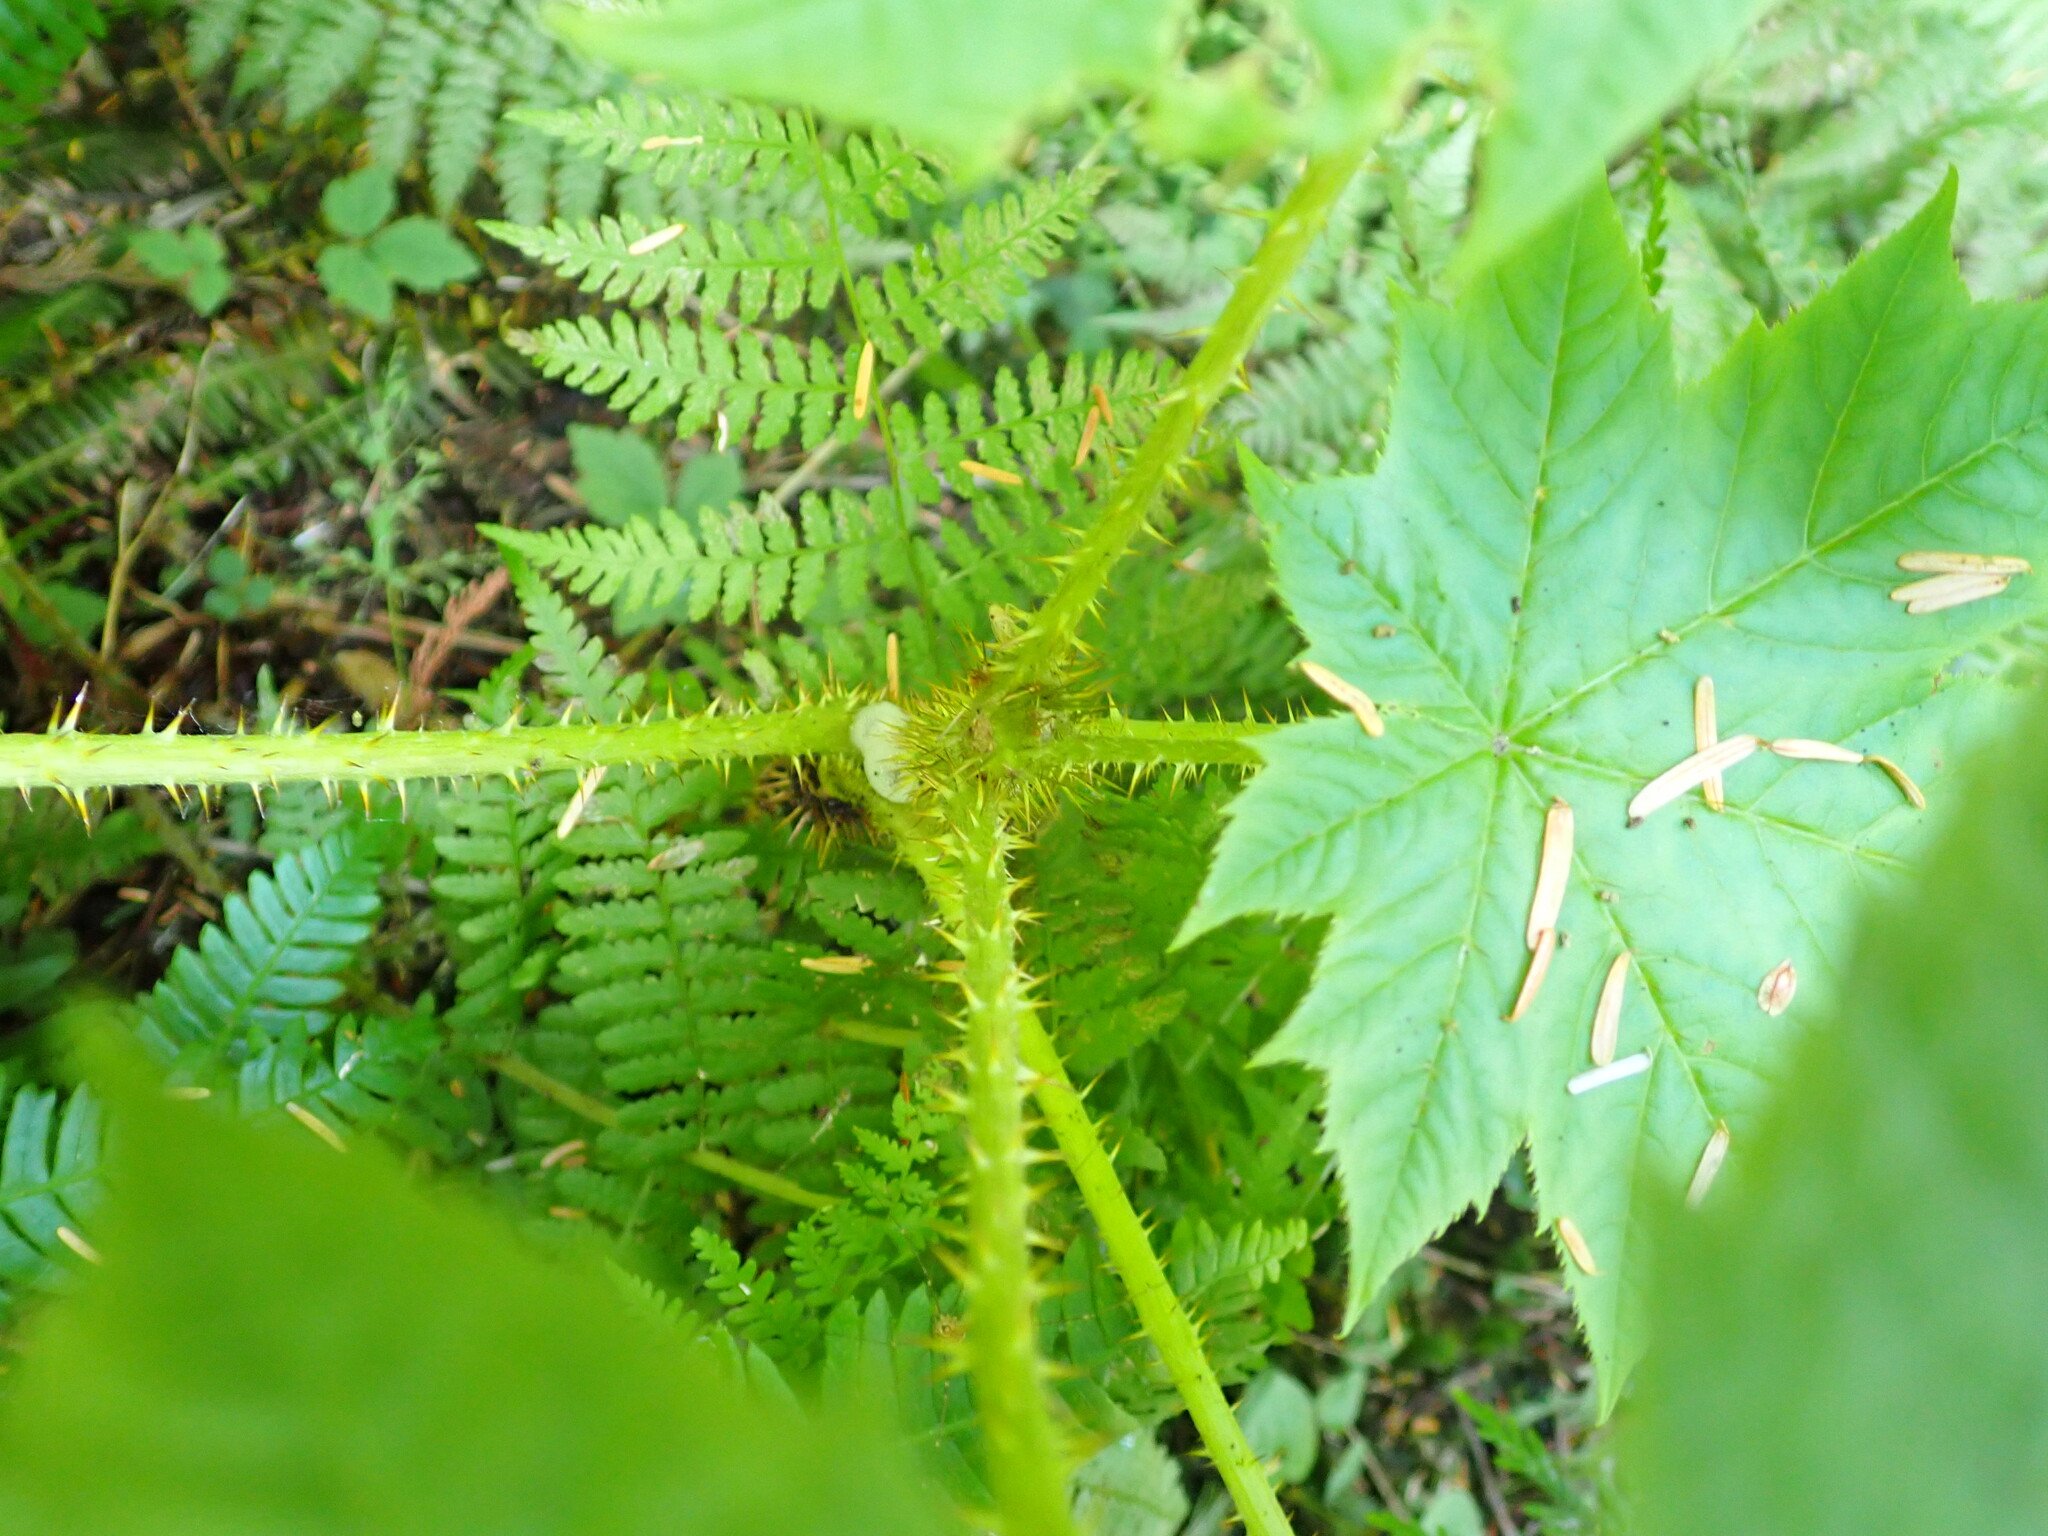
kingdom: Plantae
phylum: Tracheophyta
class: Magnoliopsida
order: Apiales
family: Araliaceae
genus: Oplopanax
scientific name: Oplopanax horridus
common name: Devil's walking-stick
